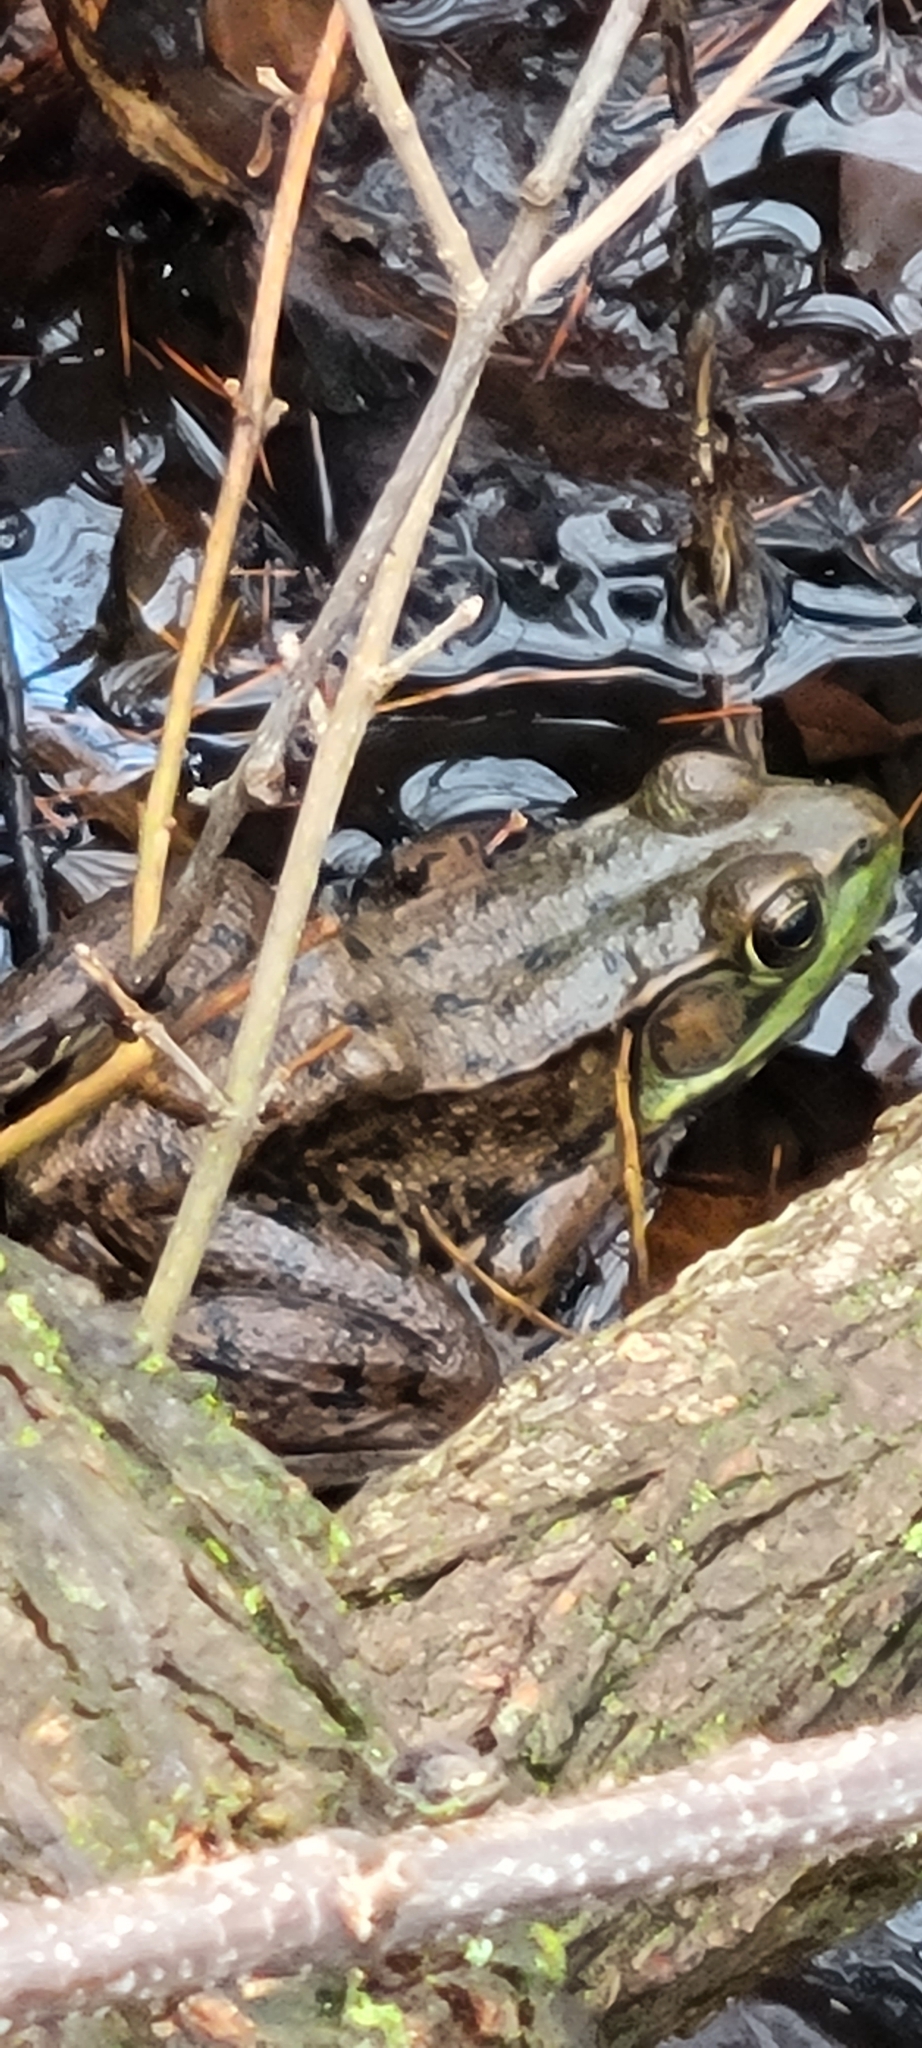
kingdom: Animalia
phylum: Chordata
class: Amphibia
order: Anura
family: Ranidae
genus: Lithobates
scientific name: Lithobates clamitans
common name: Green frog
